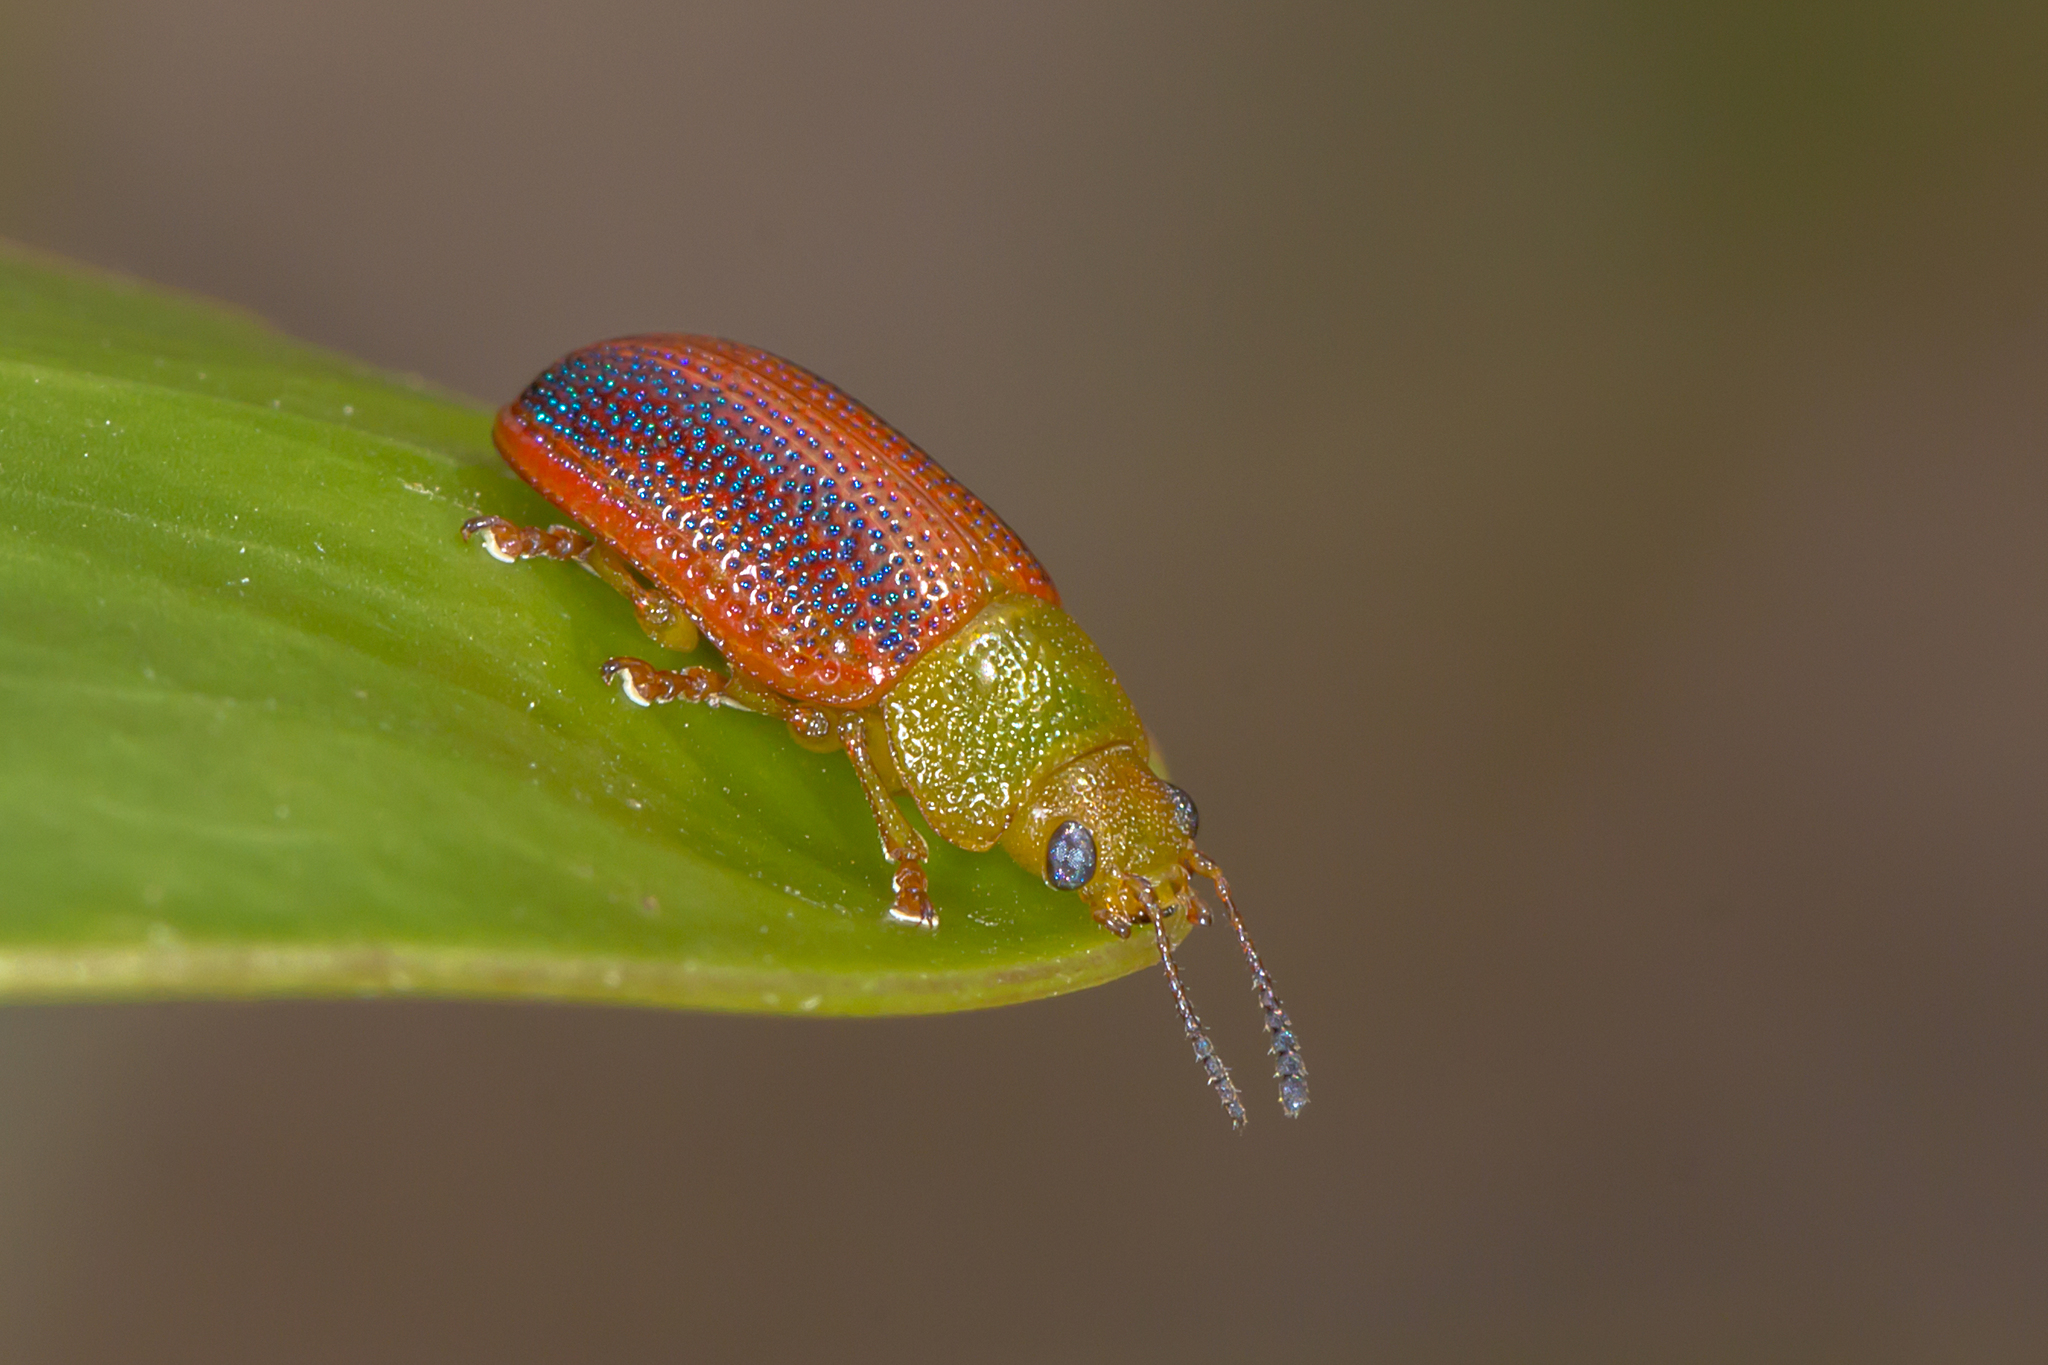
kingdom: Animalia
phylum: Arthropoda
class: Insecta
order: Coleoptera
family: Chrysomelidae
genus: Calomela
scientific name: Calomela
